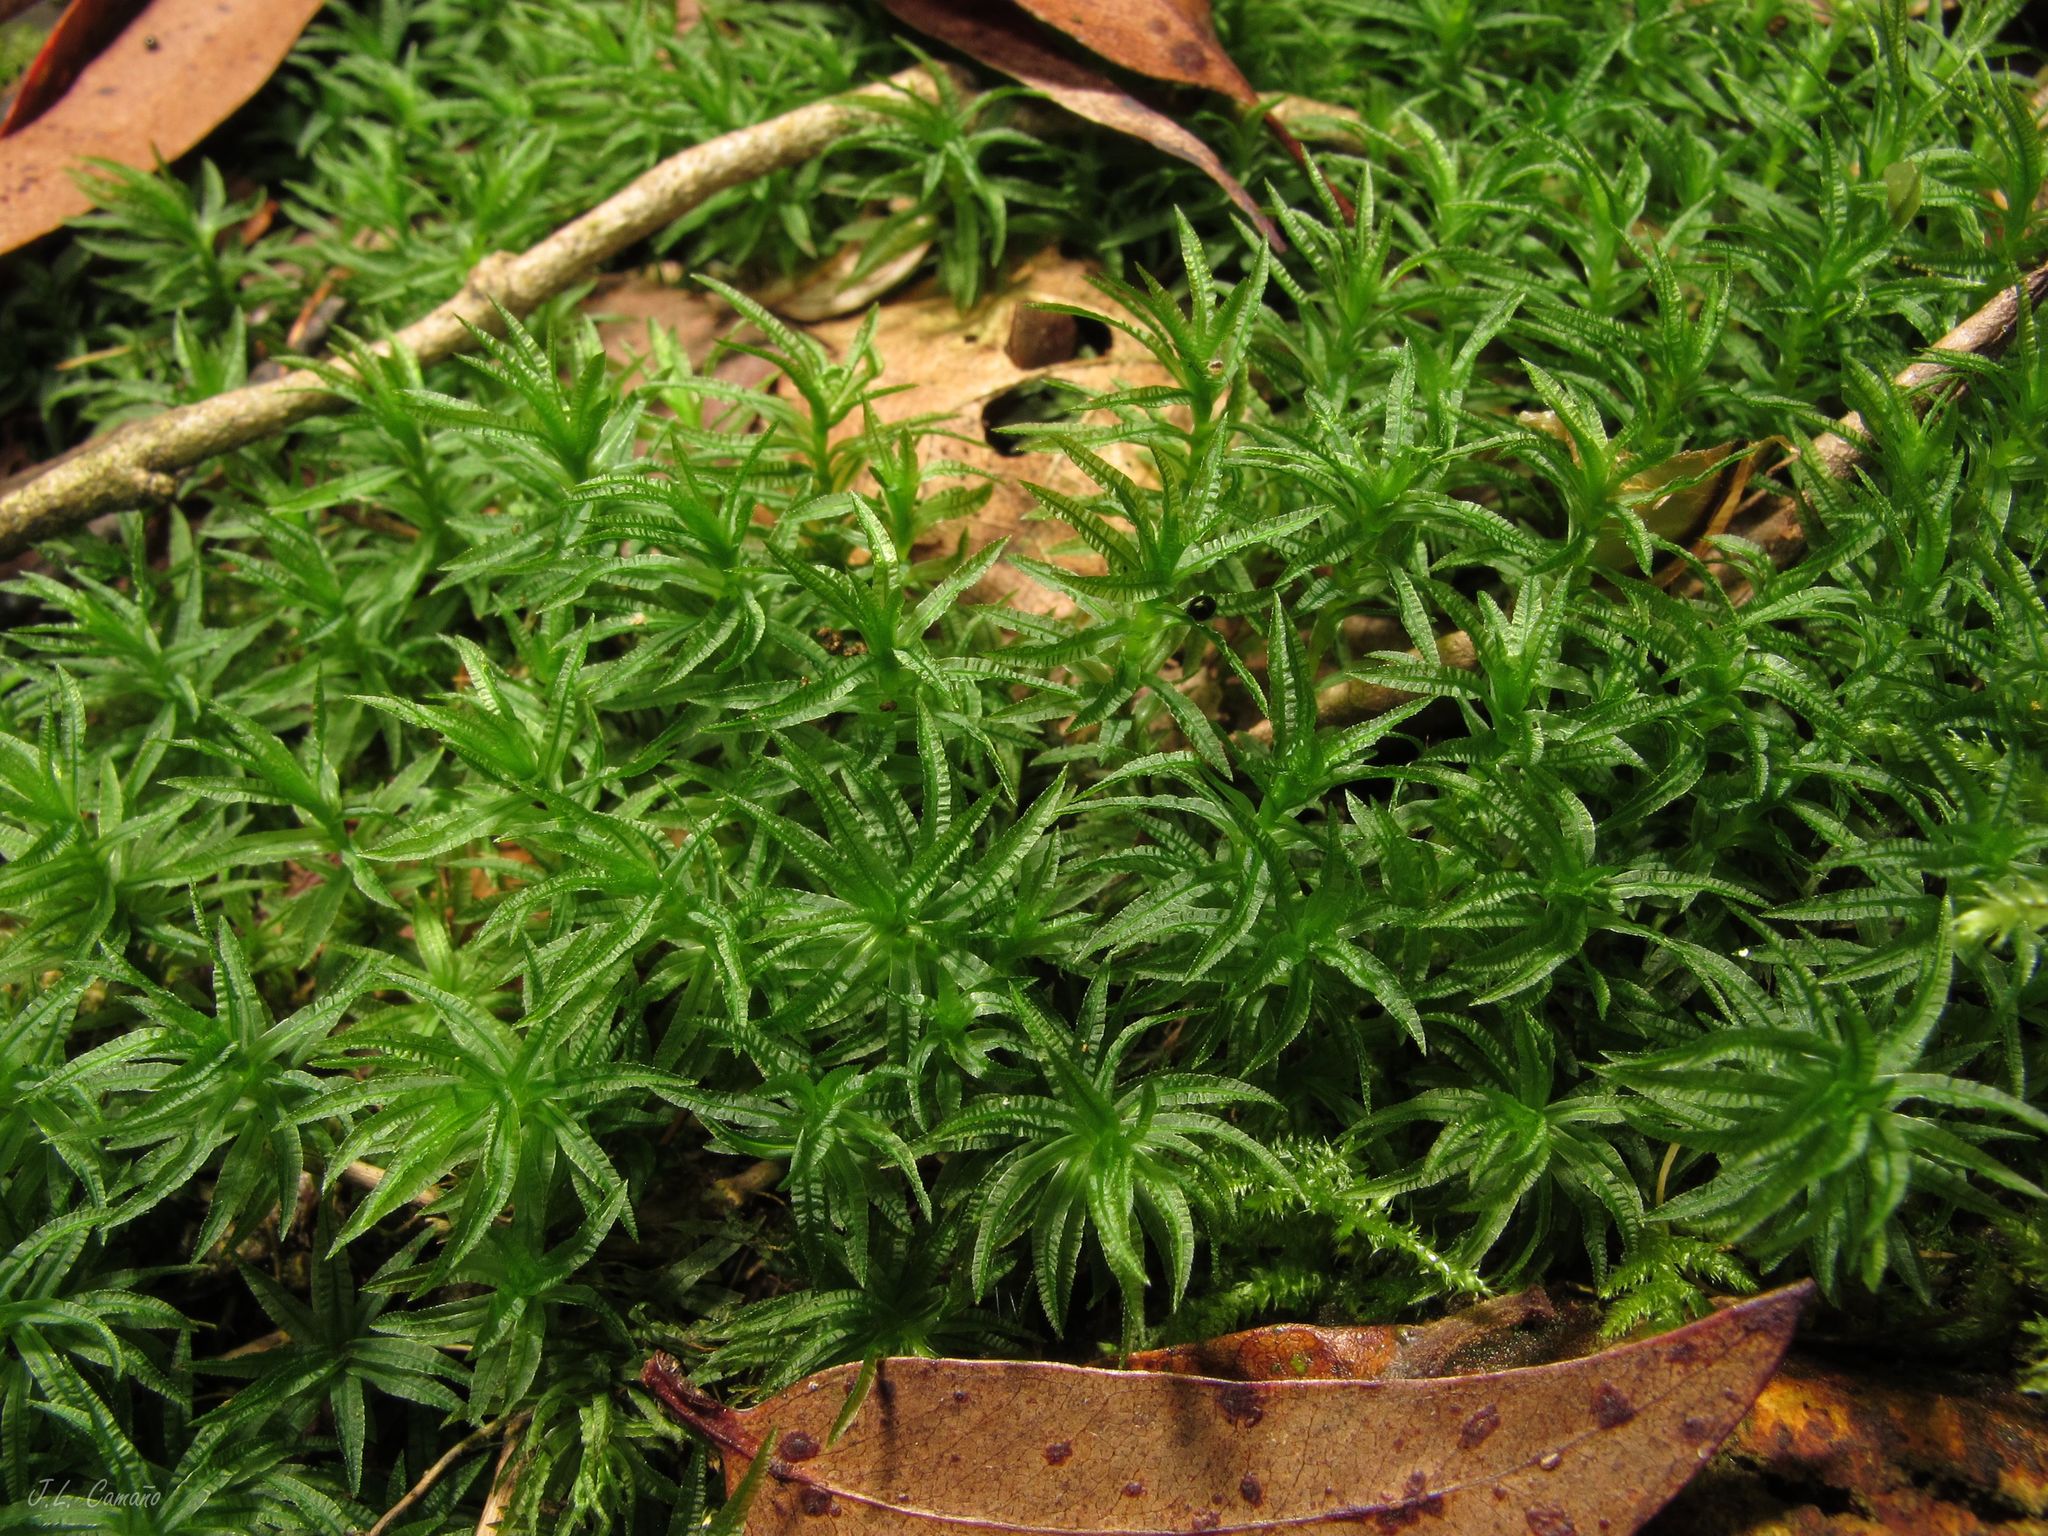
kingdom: Plantae
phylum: Bryophyta
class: Polytrichopsida
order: Polytrichales
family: Polytrichaceae
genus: Atrichum
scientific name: Atrichum undulatum
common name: Common smoothcap
